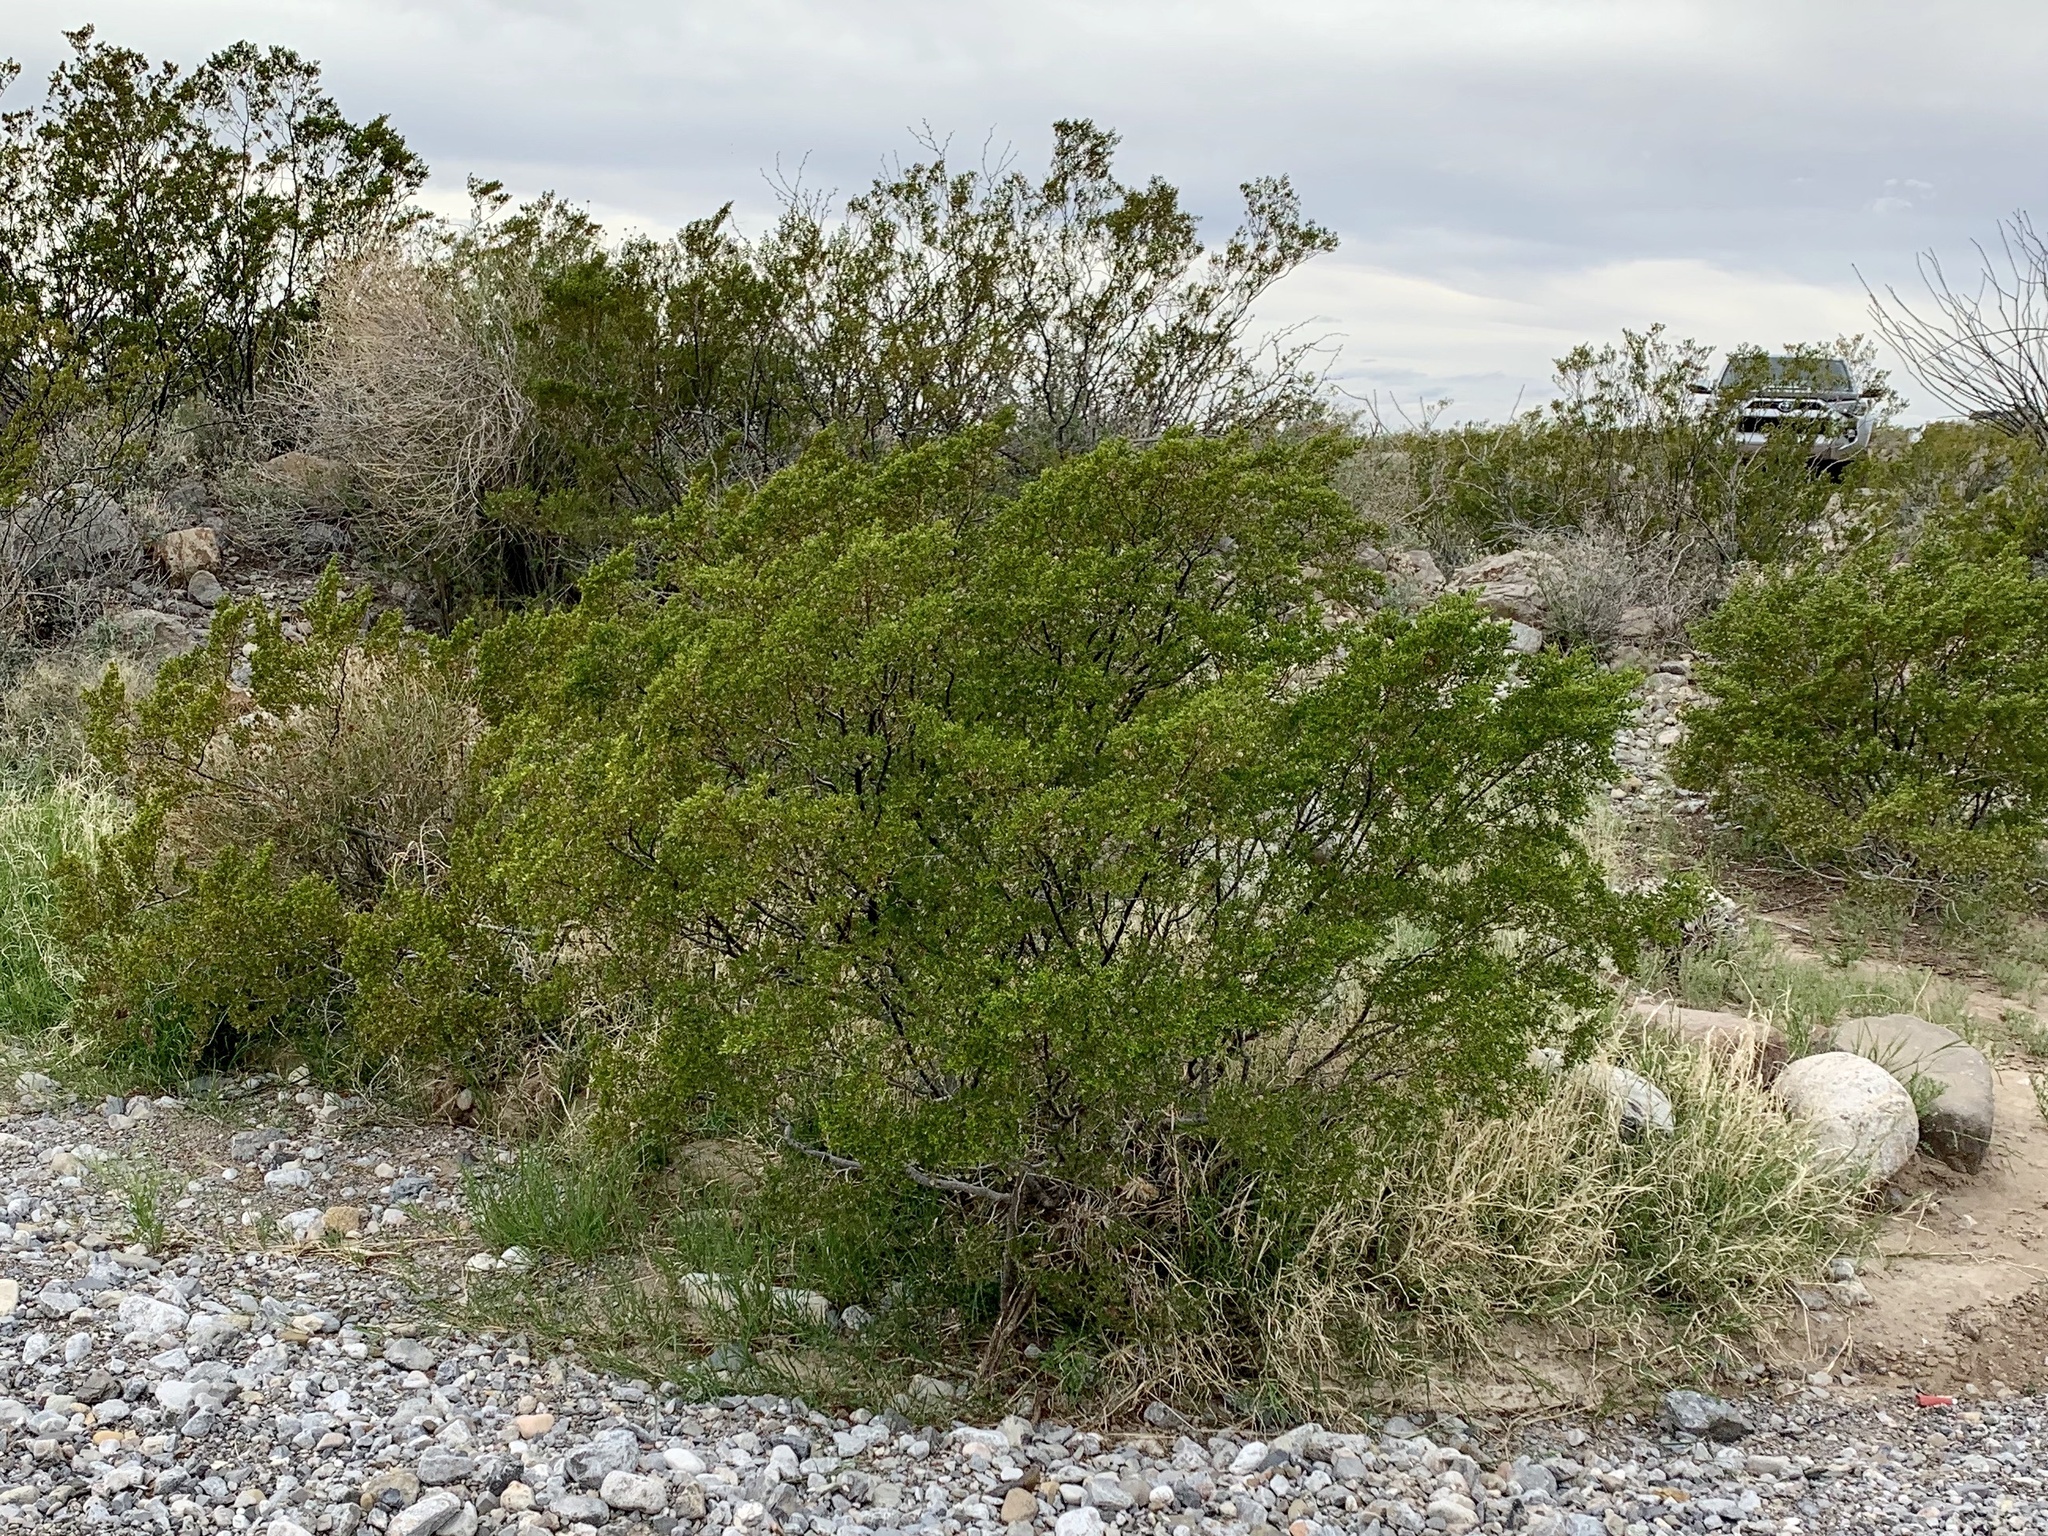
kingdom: Plantae
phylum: Tracheophyta
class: Magnoliopsida
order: Zygophyllales
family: Zygophyllaceae
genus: Larrea
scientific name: Larrea tridentata
